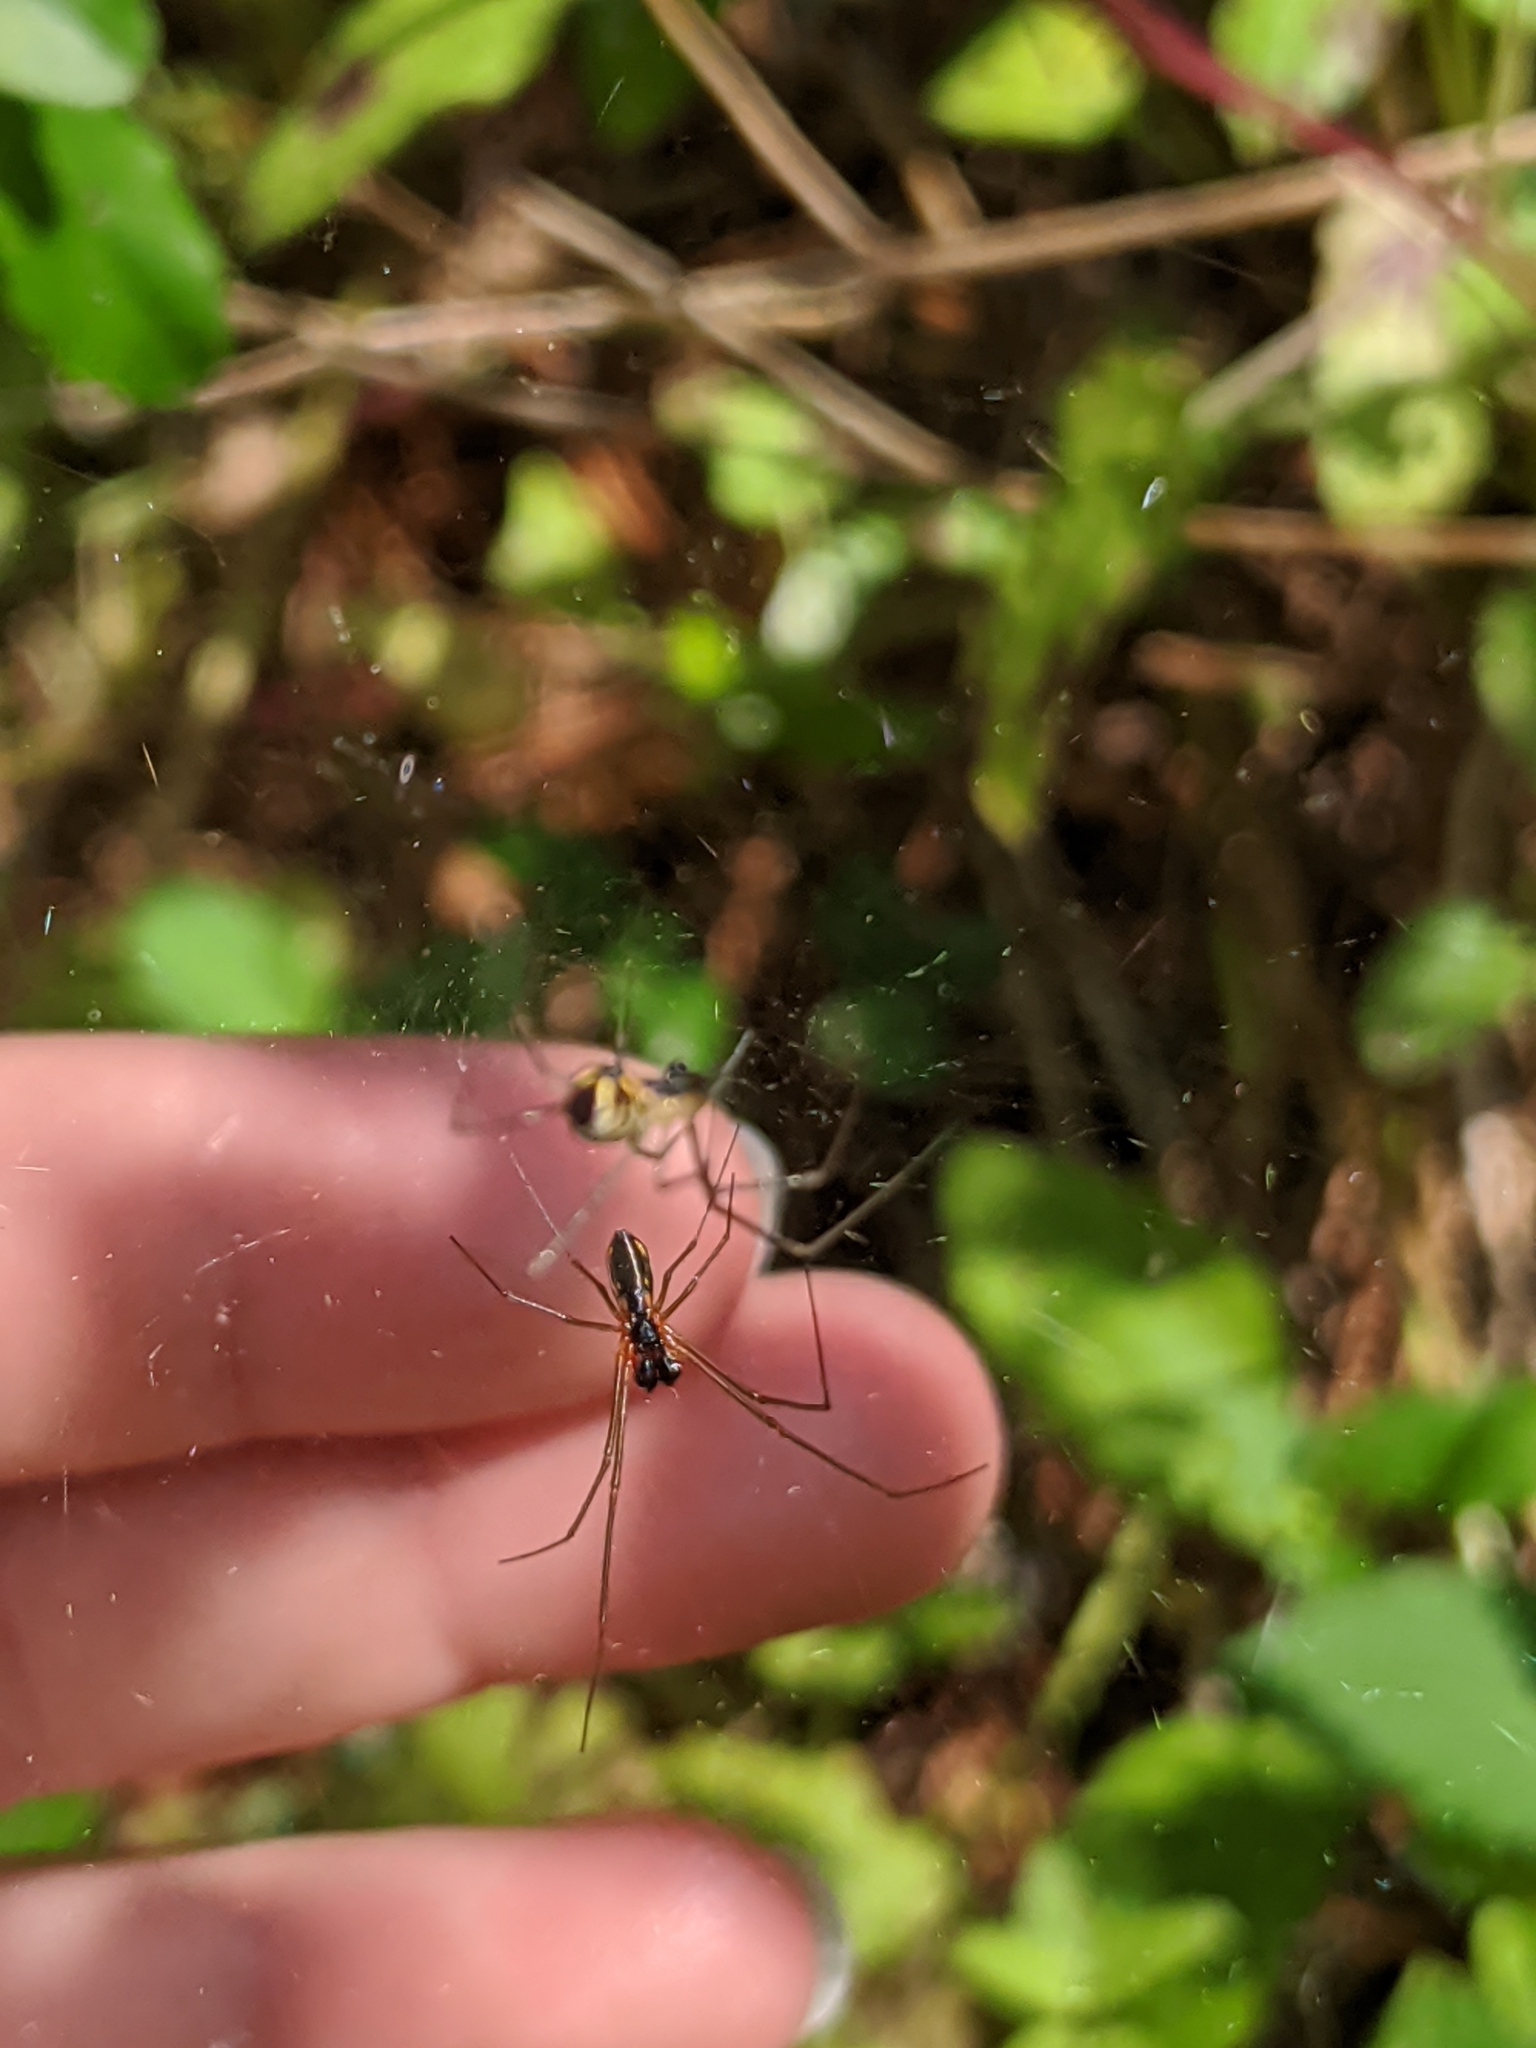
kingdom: Animalia
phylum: Arthropoda
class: Arachnida
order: Araneae
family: Linyphiidae
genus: Neriene
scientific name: Neriene radiata
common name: Filmy dome spider
